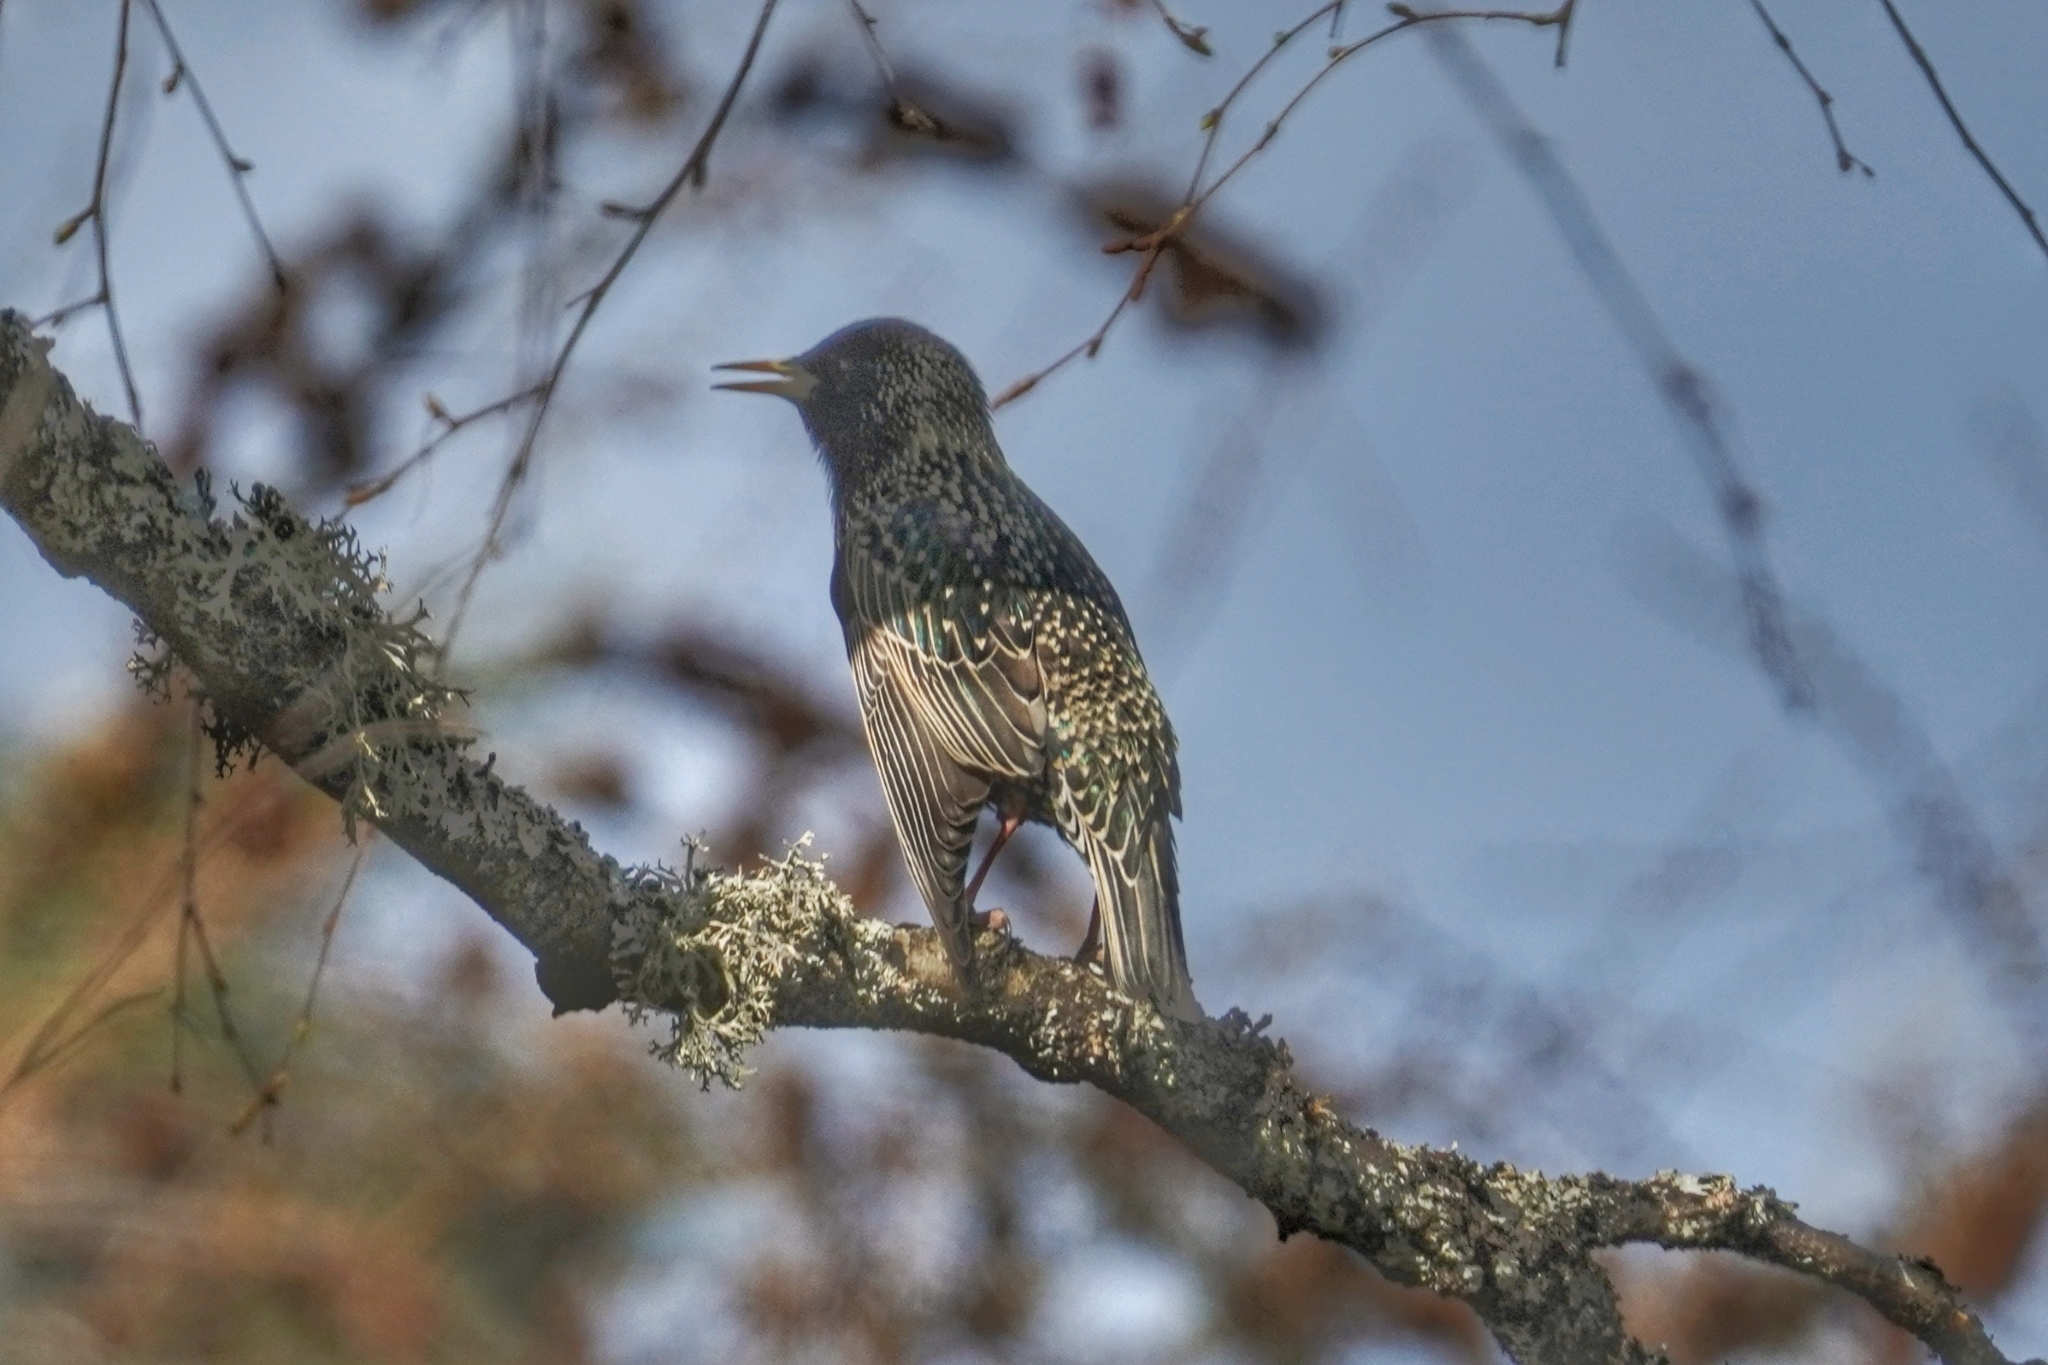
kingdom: Animalia
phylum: Chordata
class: Aves
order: Passeriformes
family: Sturnidae
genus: Sturnus
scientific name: Sturnus vulgaris
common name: Common starling
